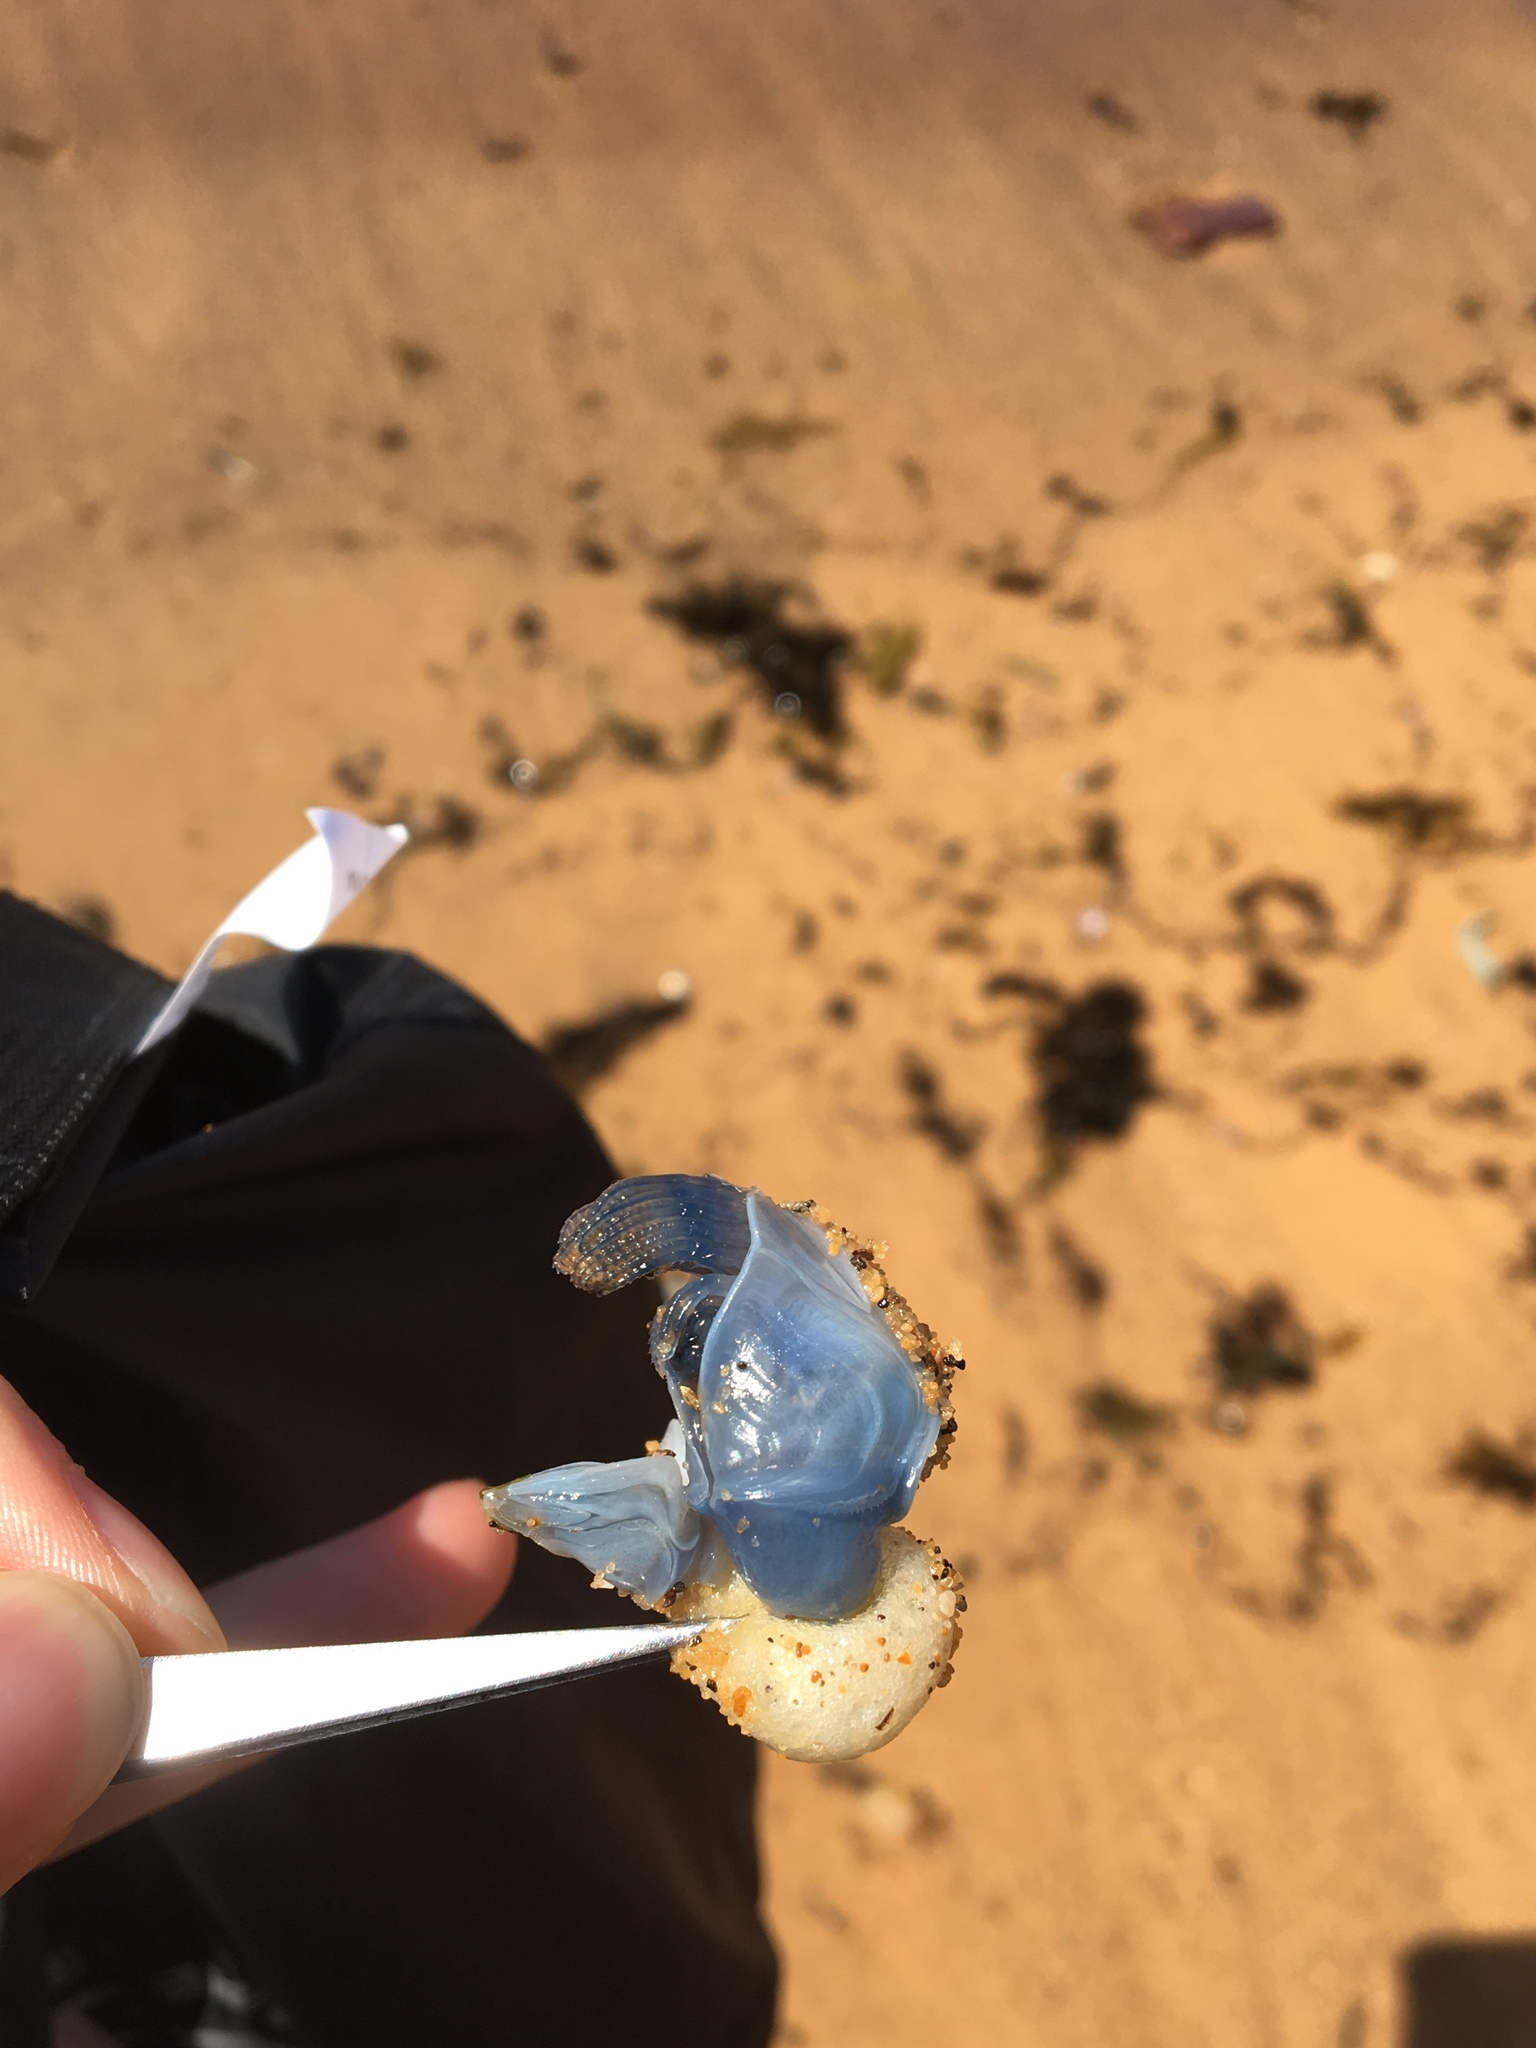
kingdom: Animalia
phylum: Arthropoda
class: Maxillopoda
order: Pedunculata
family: Lepadidae
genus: Dosima
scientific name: Dosima fascicularis
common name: Buoy barnacle
